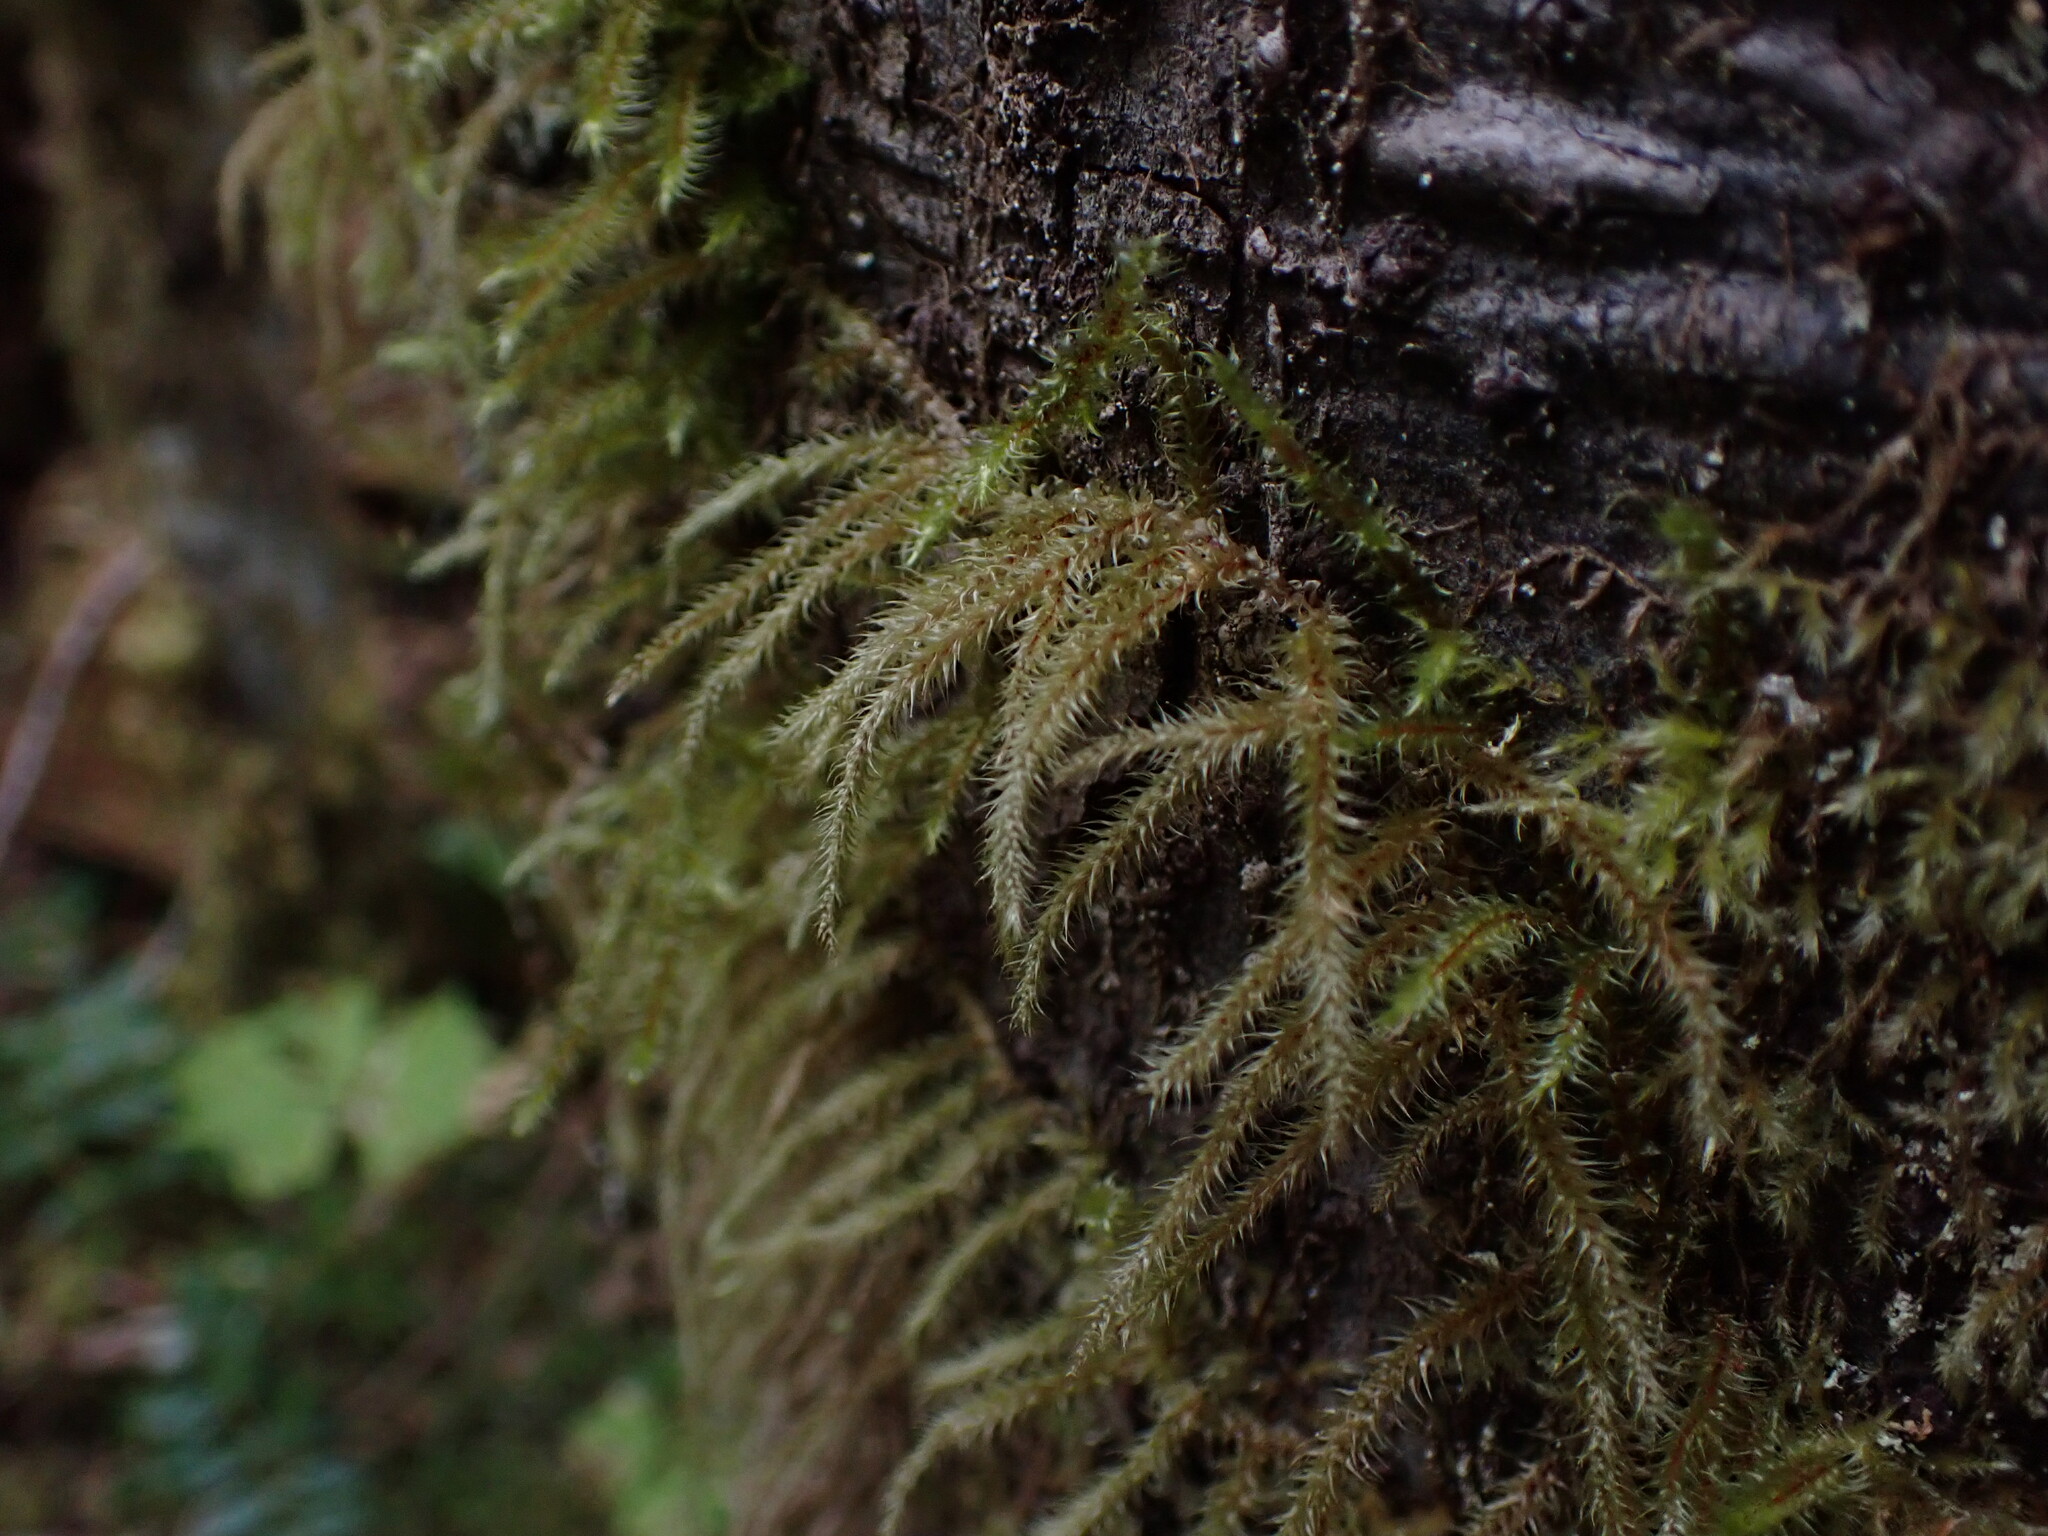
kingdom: Plantae
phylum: Bryophyta
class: Bryopsida
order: Hypnales
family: Hylocomiaceae
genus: Rhytidiadelphus
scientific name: Rhytidiadelphus loreus
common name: Lanky moss
